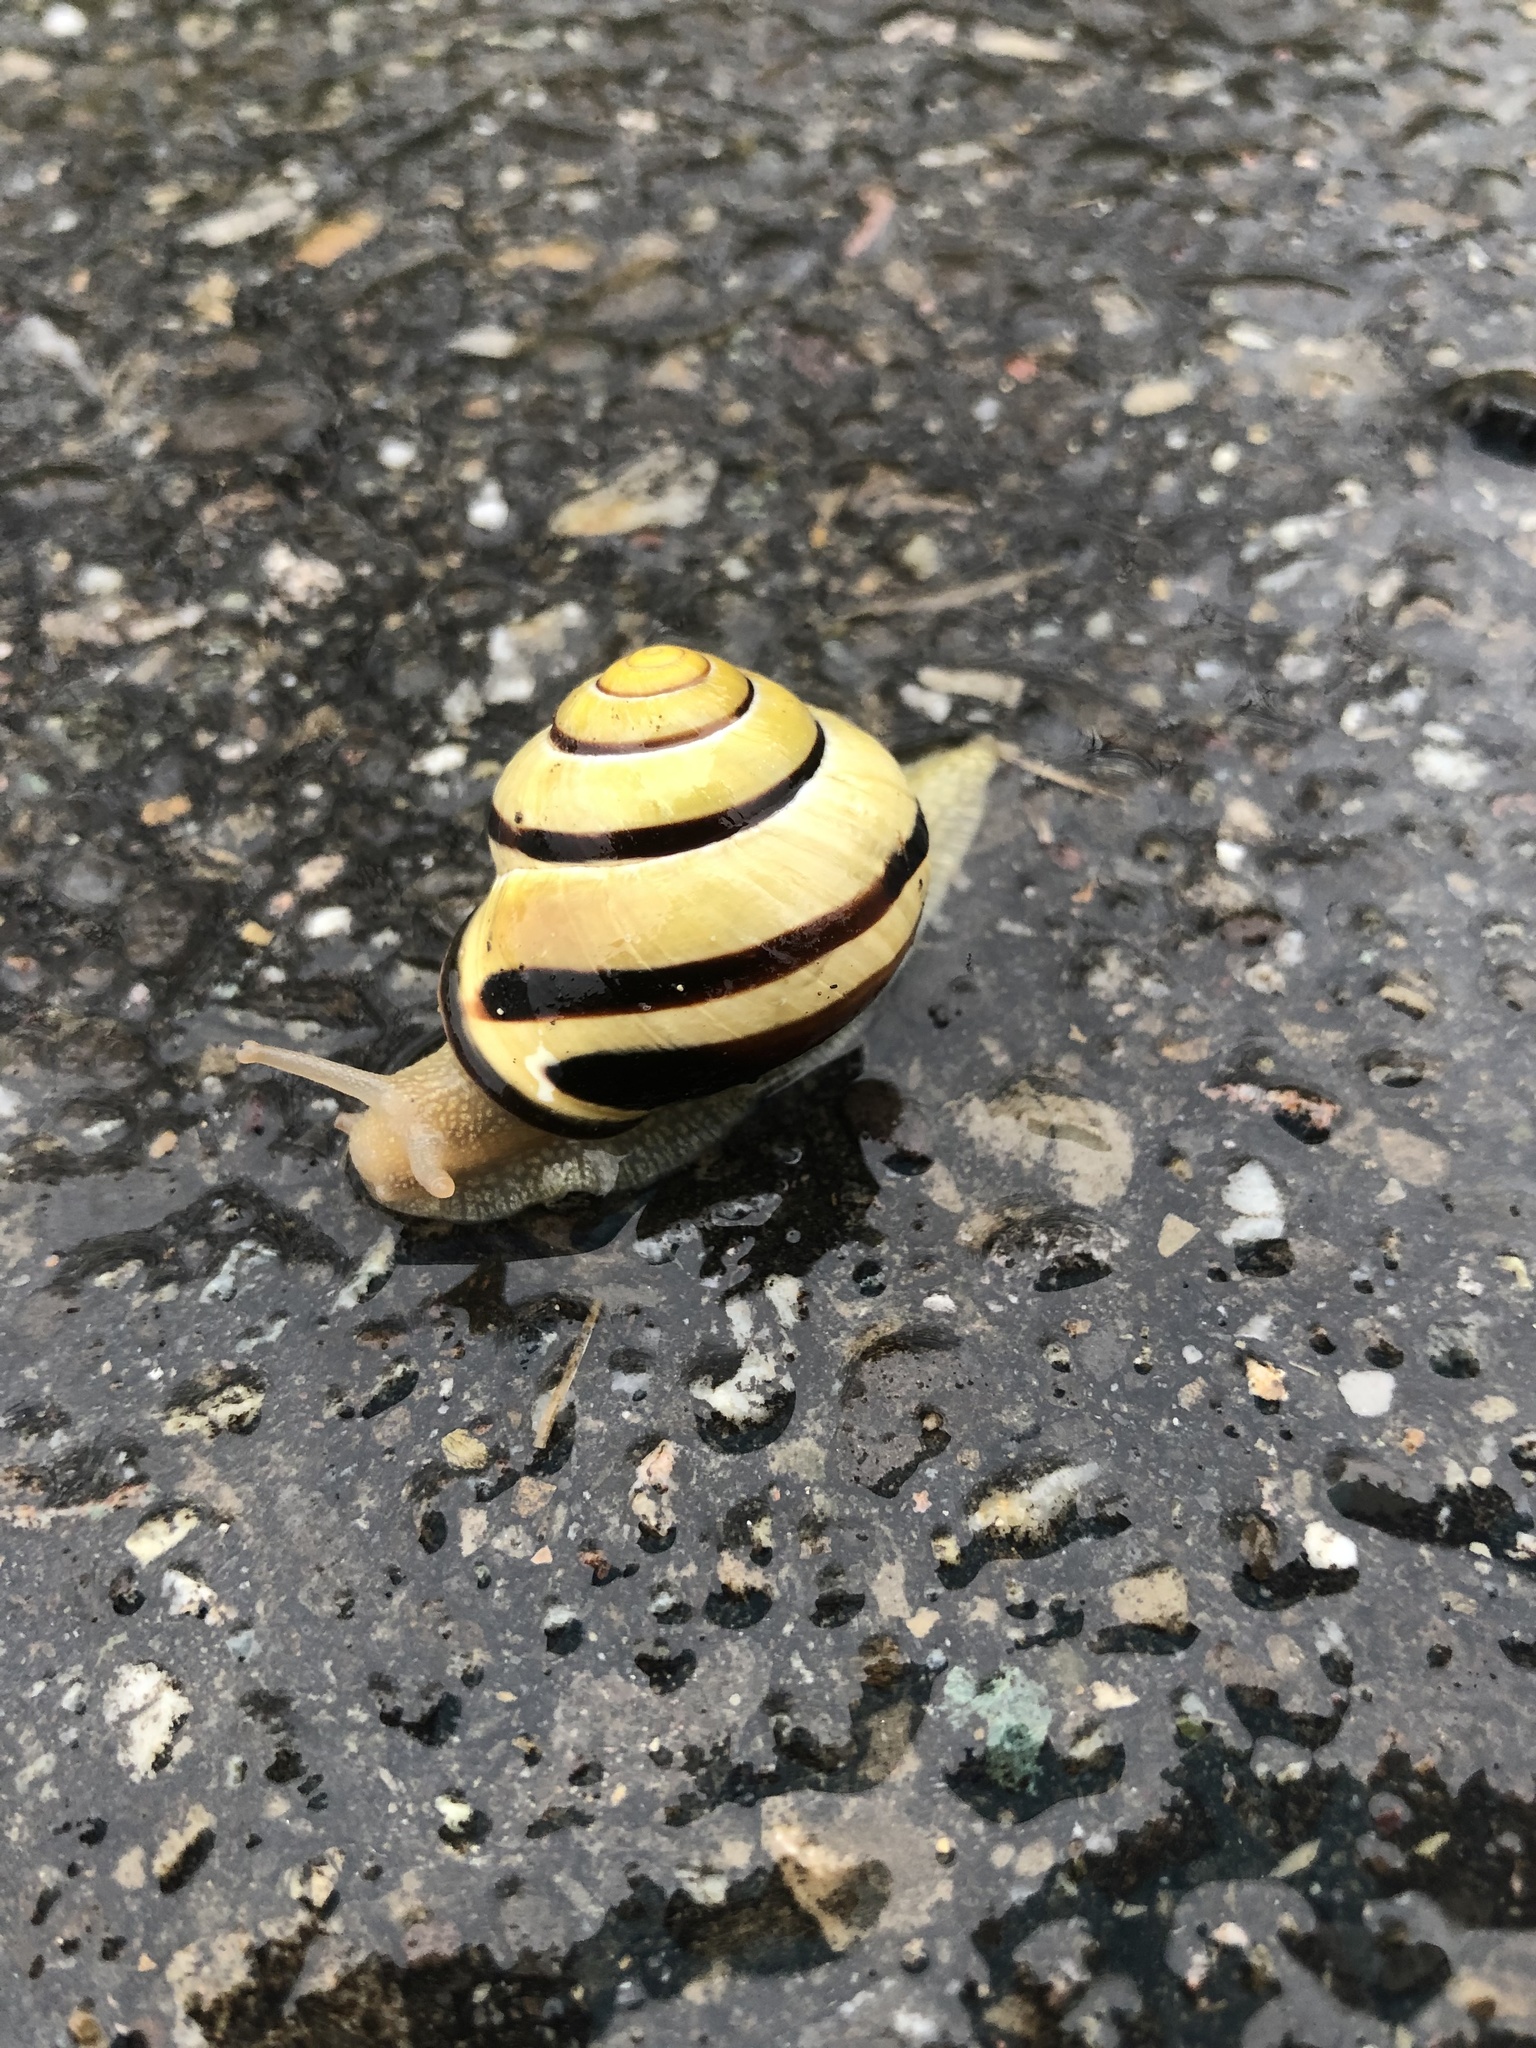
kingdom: Animalia
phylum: Mollusca
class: Gastropoda
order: Stylommatophora
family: Helicidae
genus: Cepaea
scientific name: Cepaea nemoralis
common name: Grovesnail
